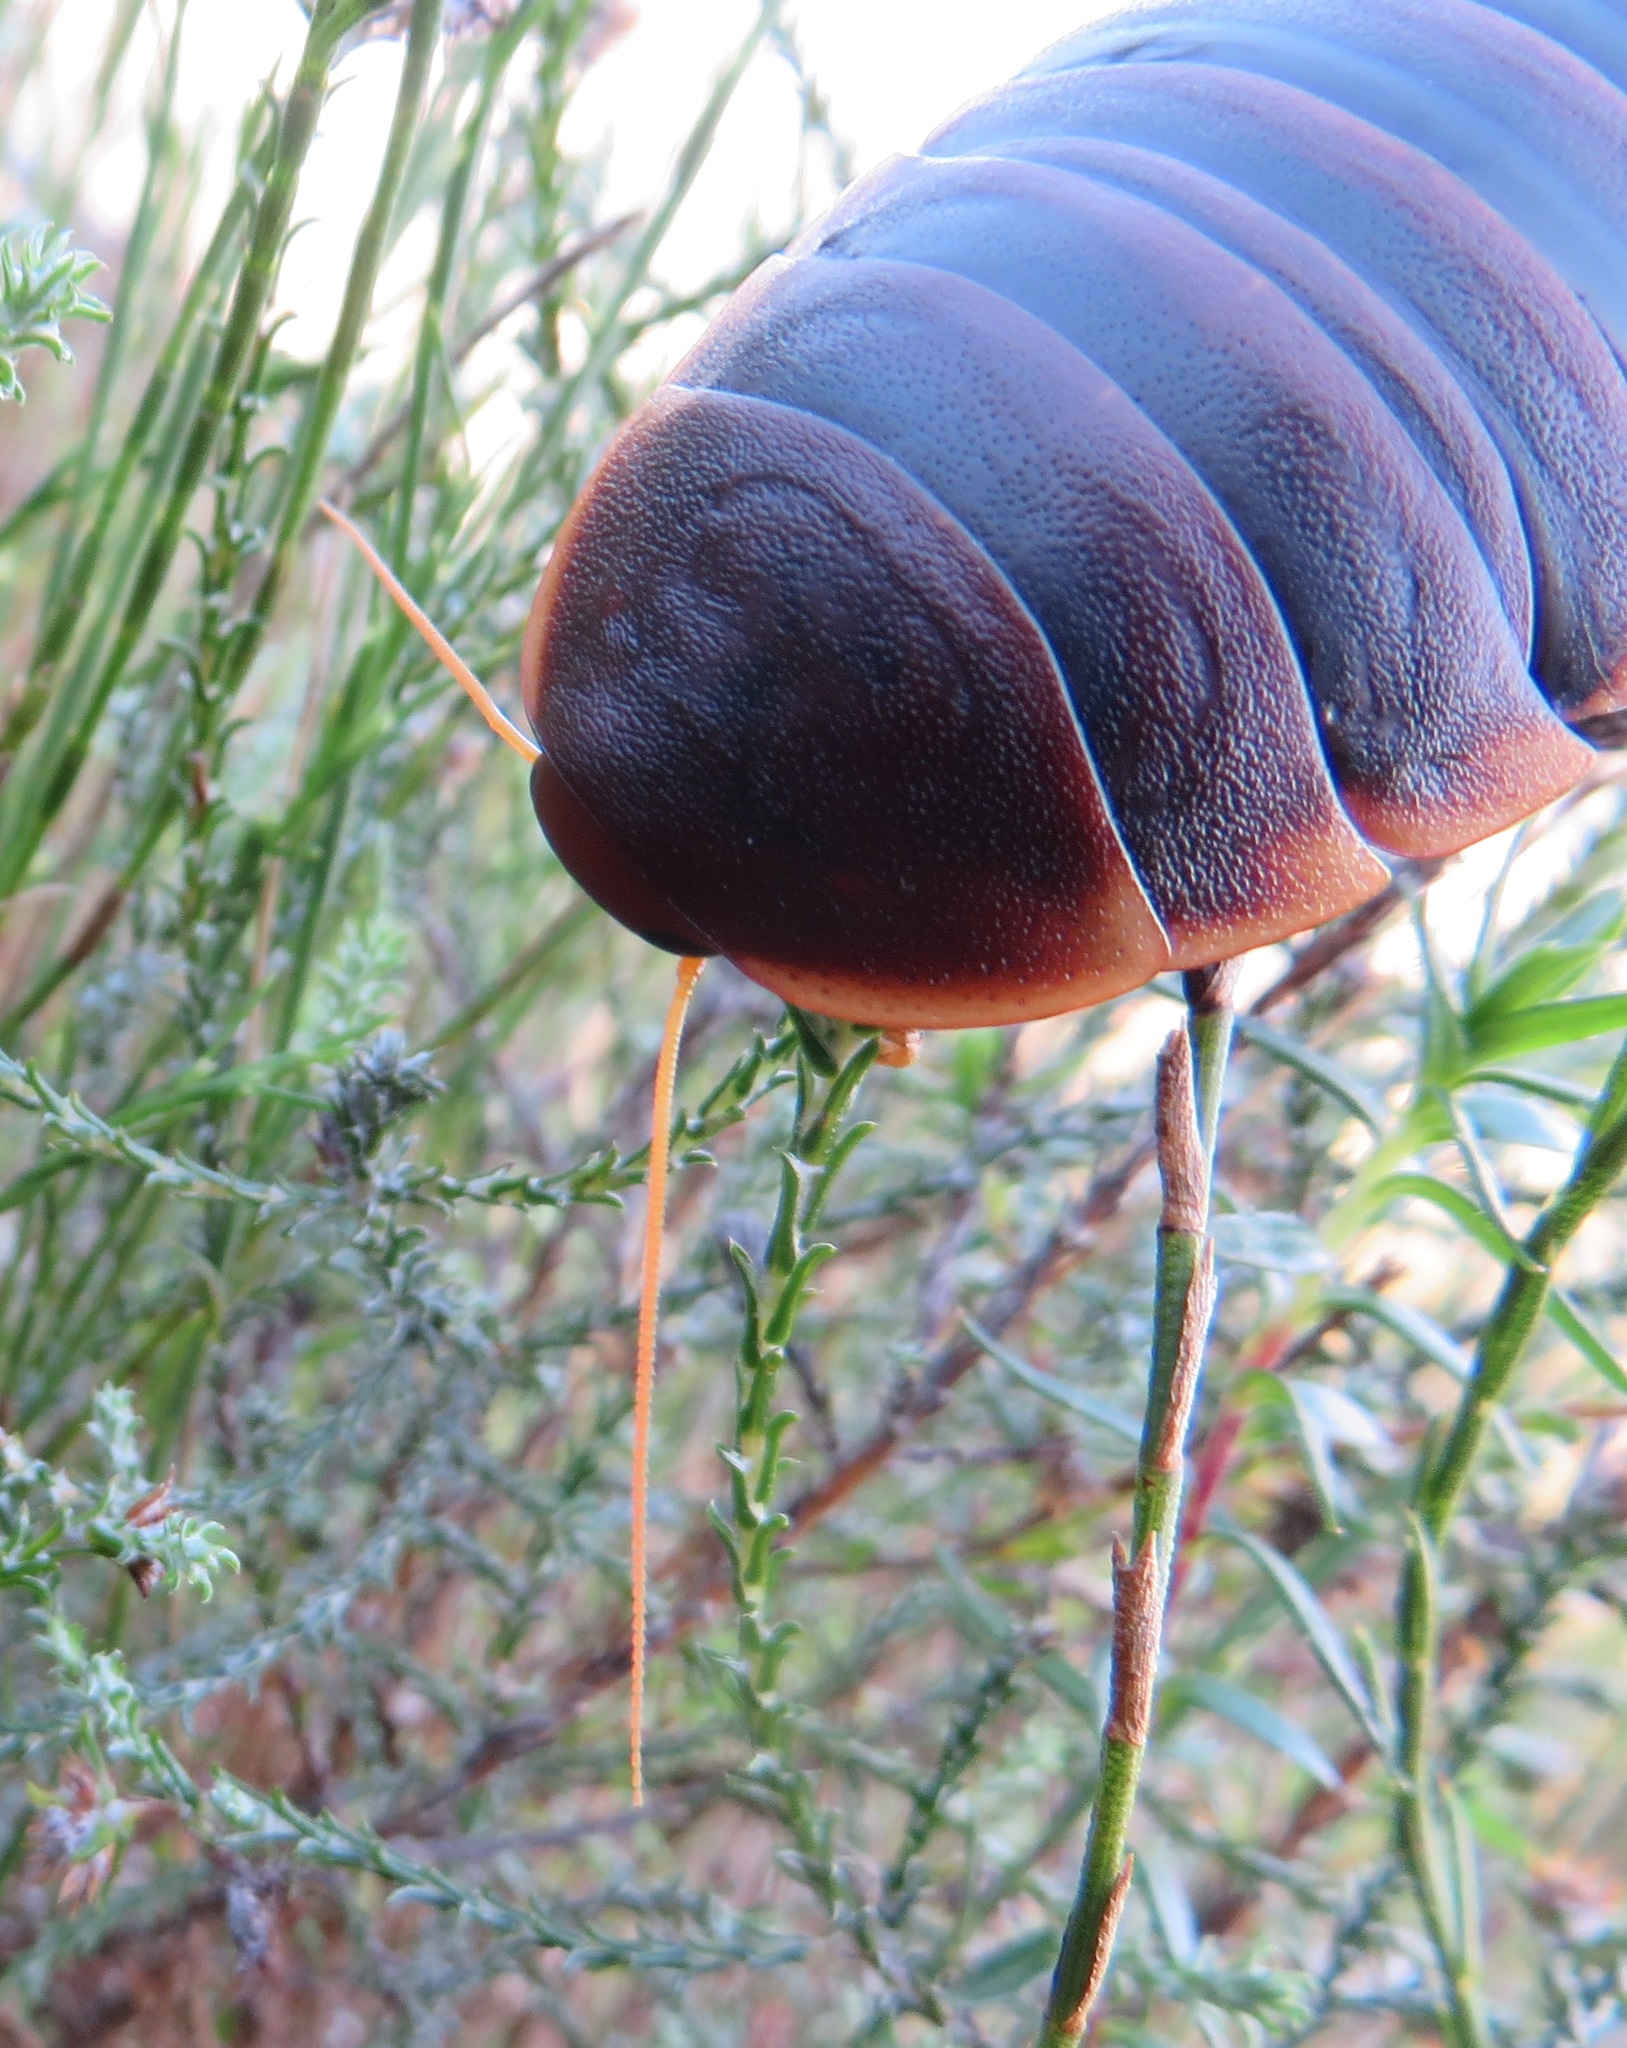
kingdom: Animalia
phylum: Arthropoda
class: Insecta
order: Blattodea
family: Blaberidae
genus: Aptera
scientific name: Aptera fusca
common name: Cape mountain cockroach
